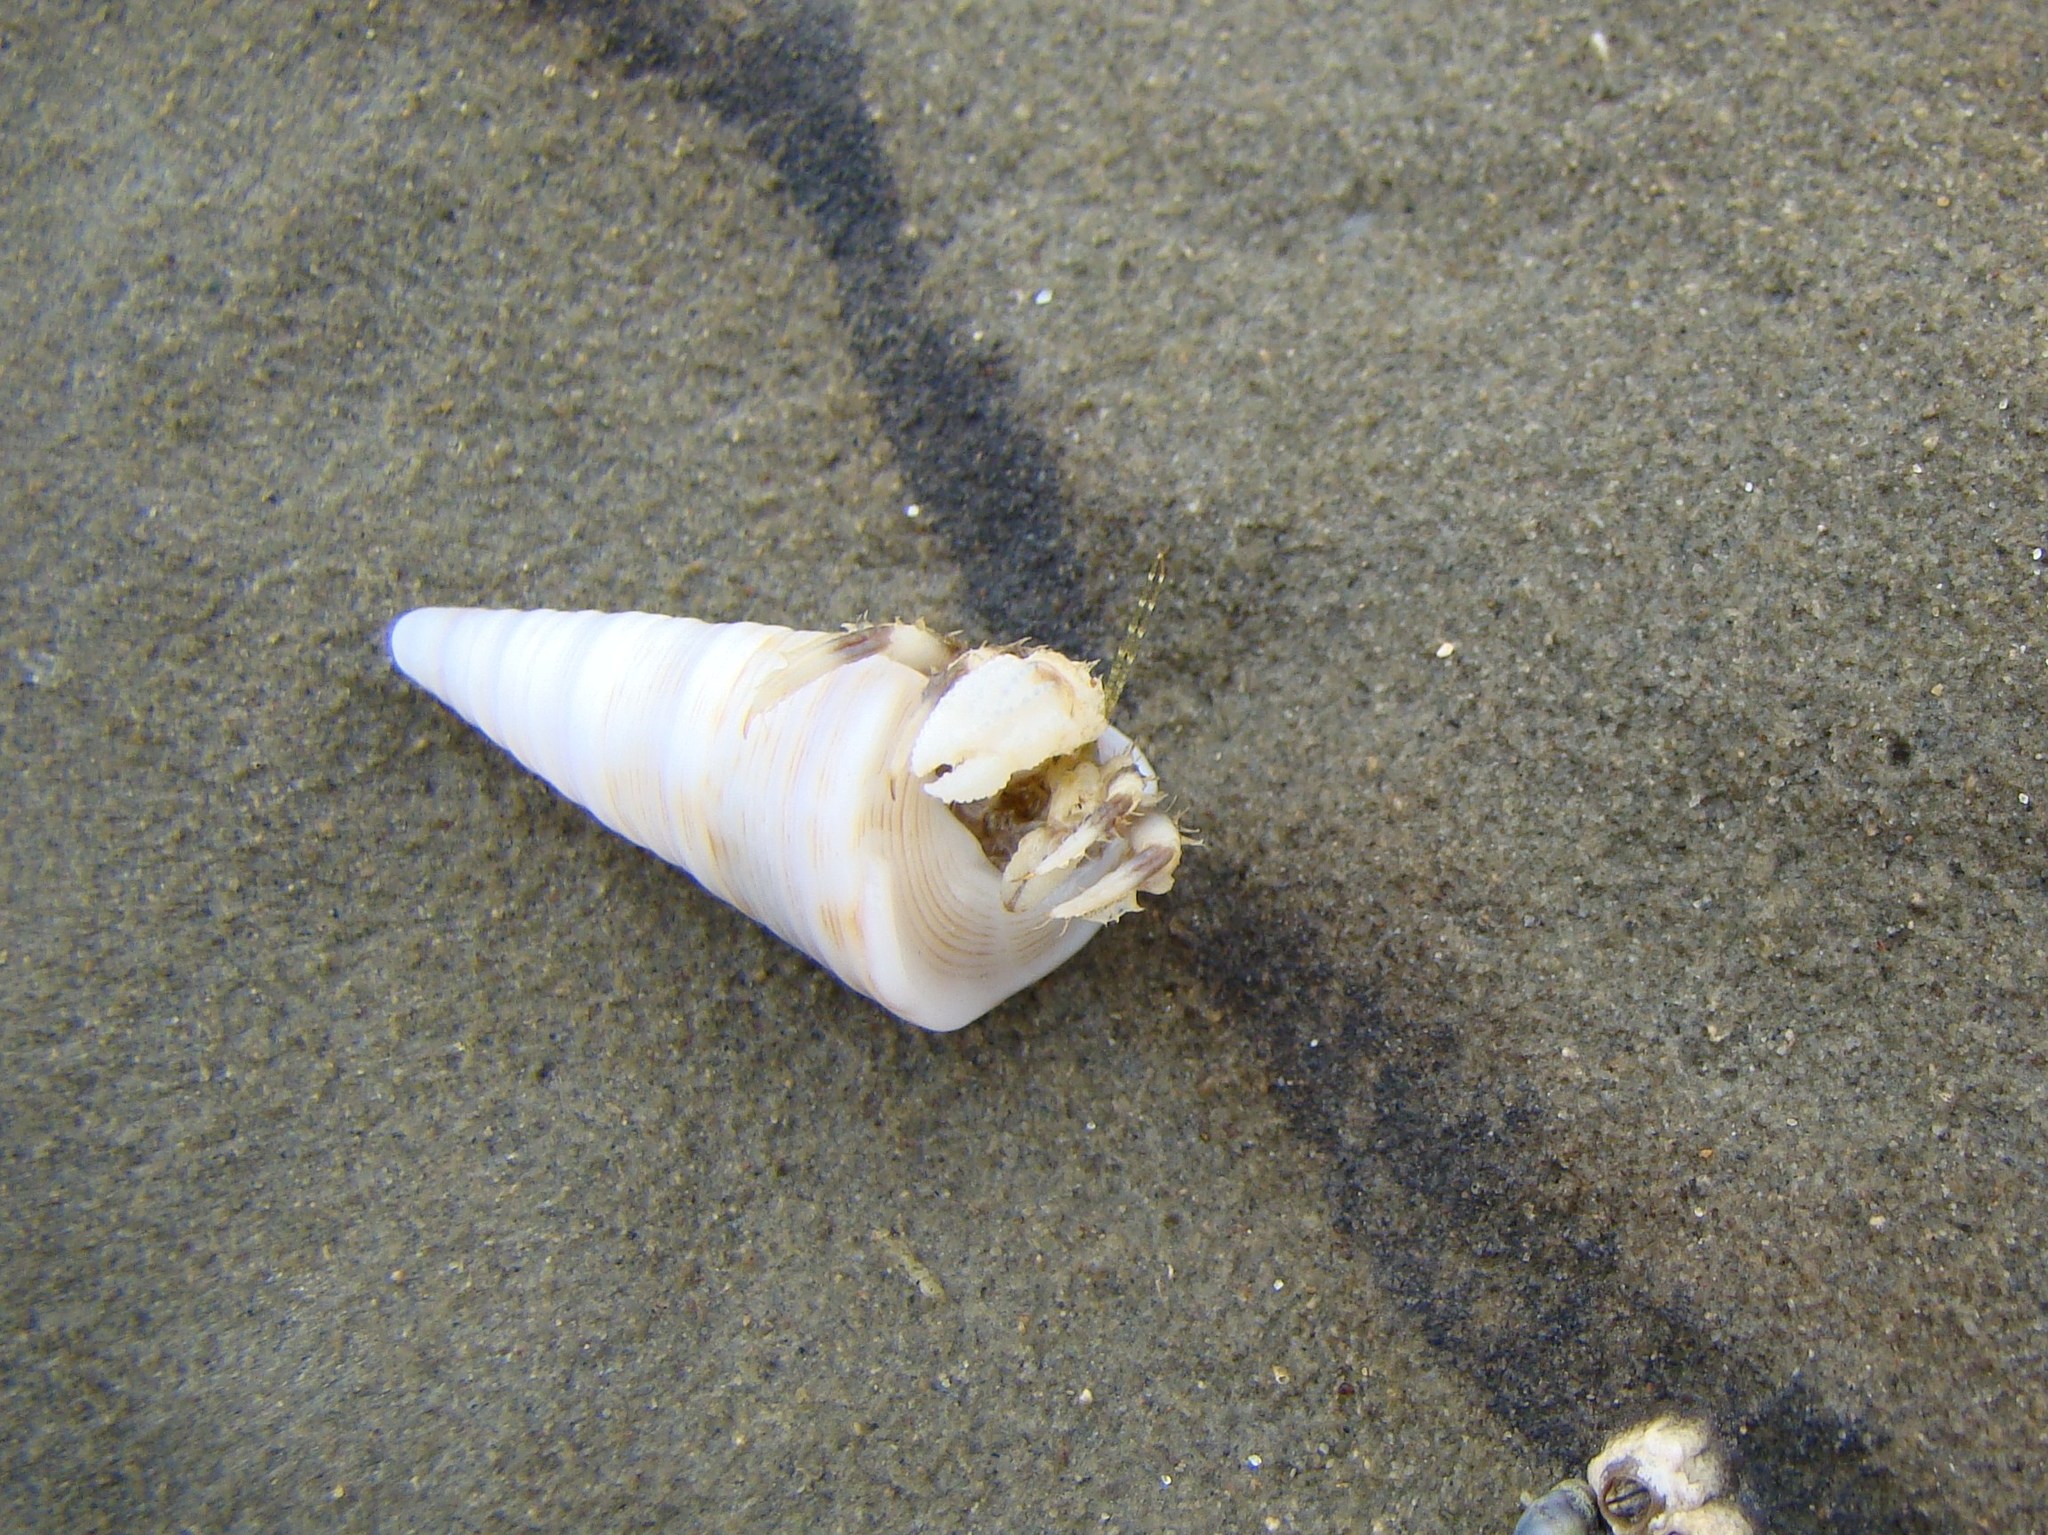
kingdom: Animalia
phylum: Arthropoda
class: Malacostraca
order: Decapoda
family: Paguridae
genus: Pagurus
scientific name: Pagurus novizealandiae
